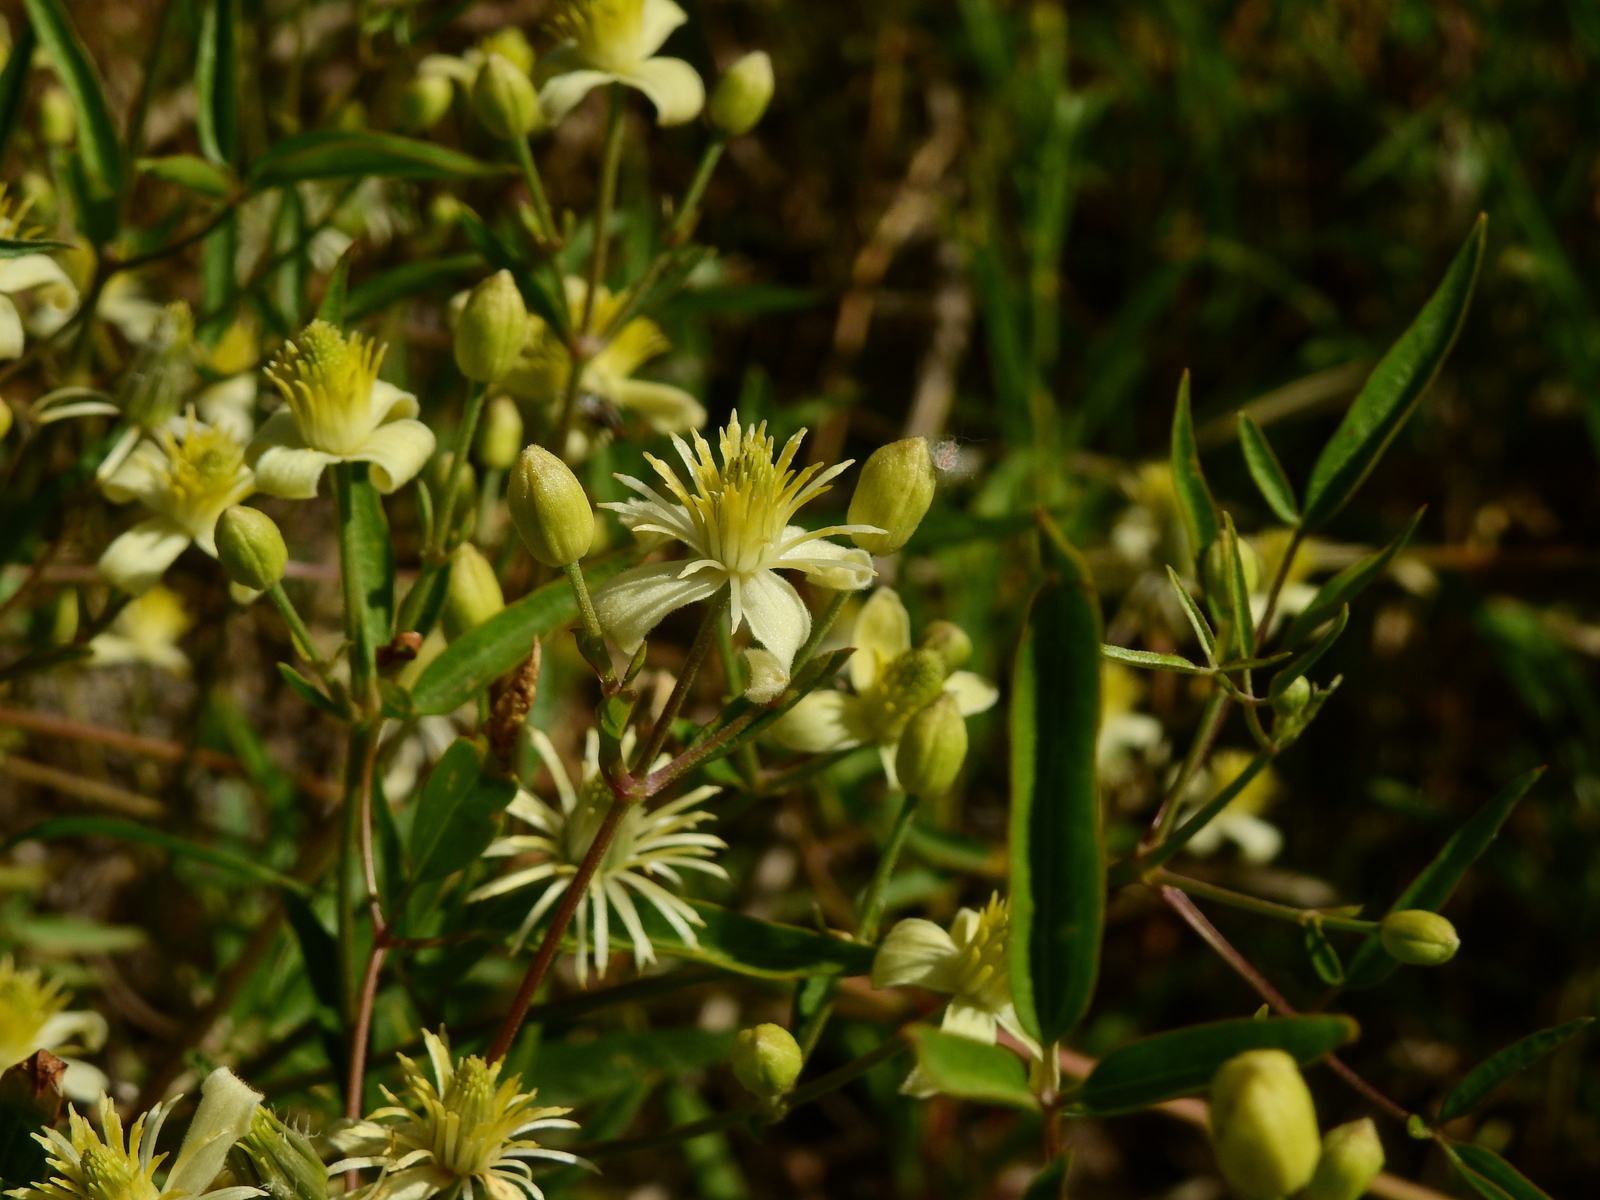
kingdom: Plantae
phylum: Tracheophyta
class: Magnoliopsida
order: Ranunculales
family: Ranunculaceae
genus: Clematis
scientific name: Clematis montevidensis
